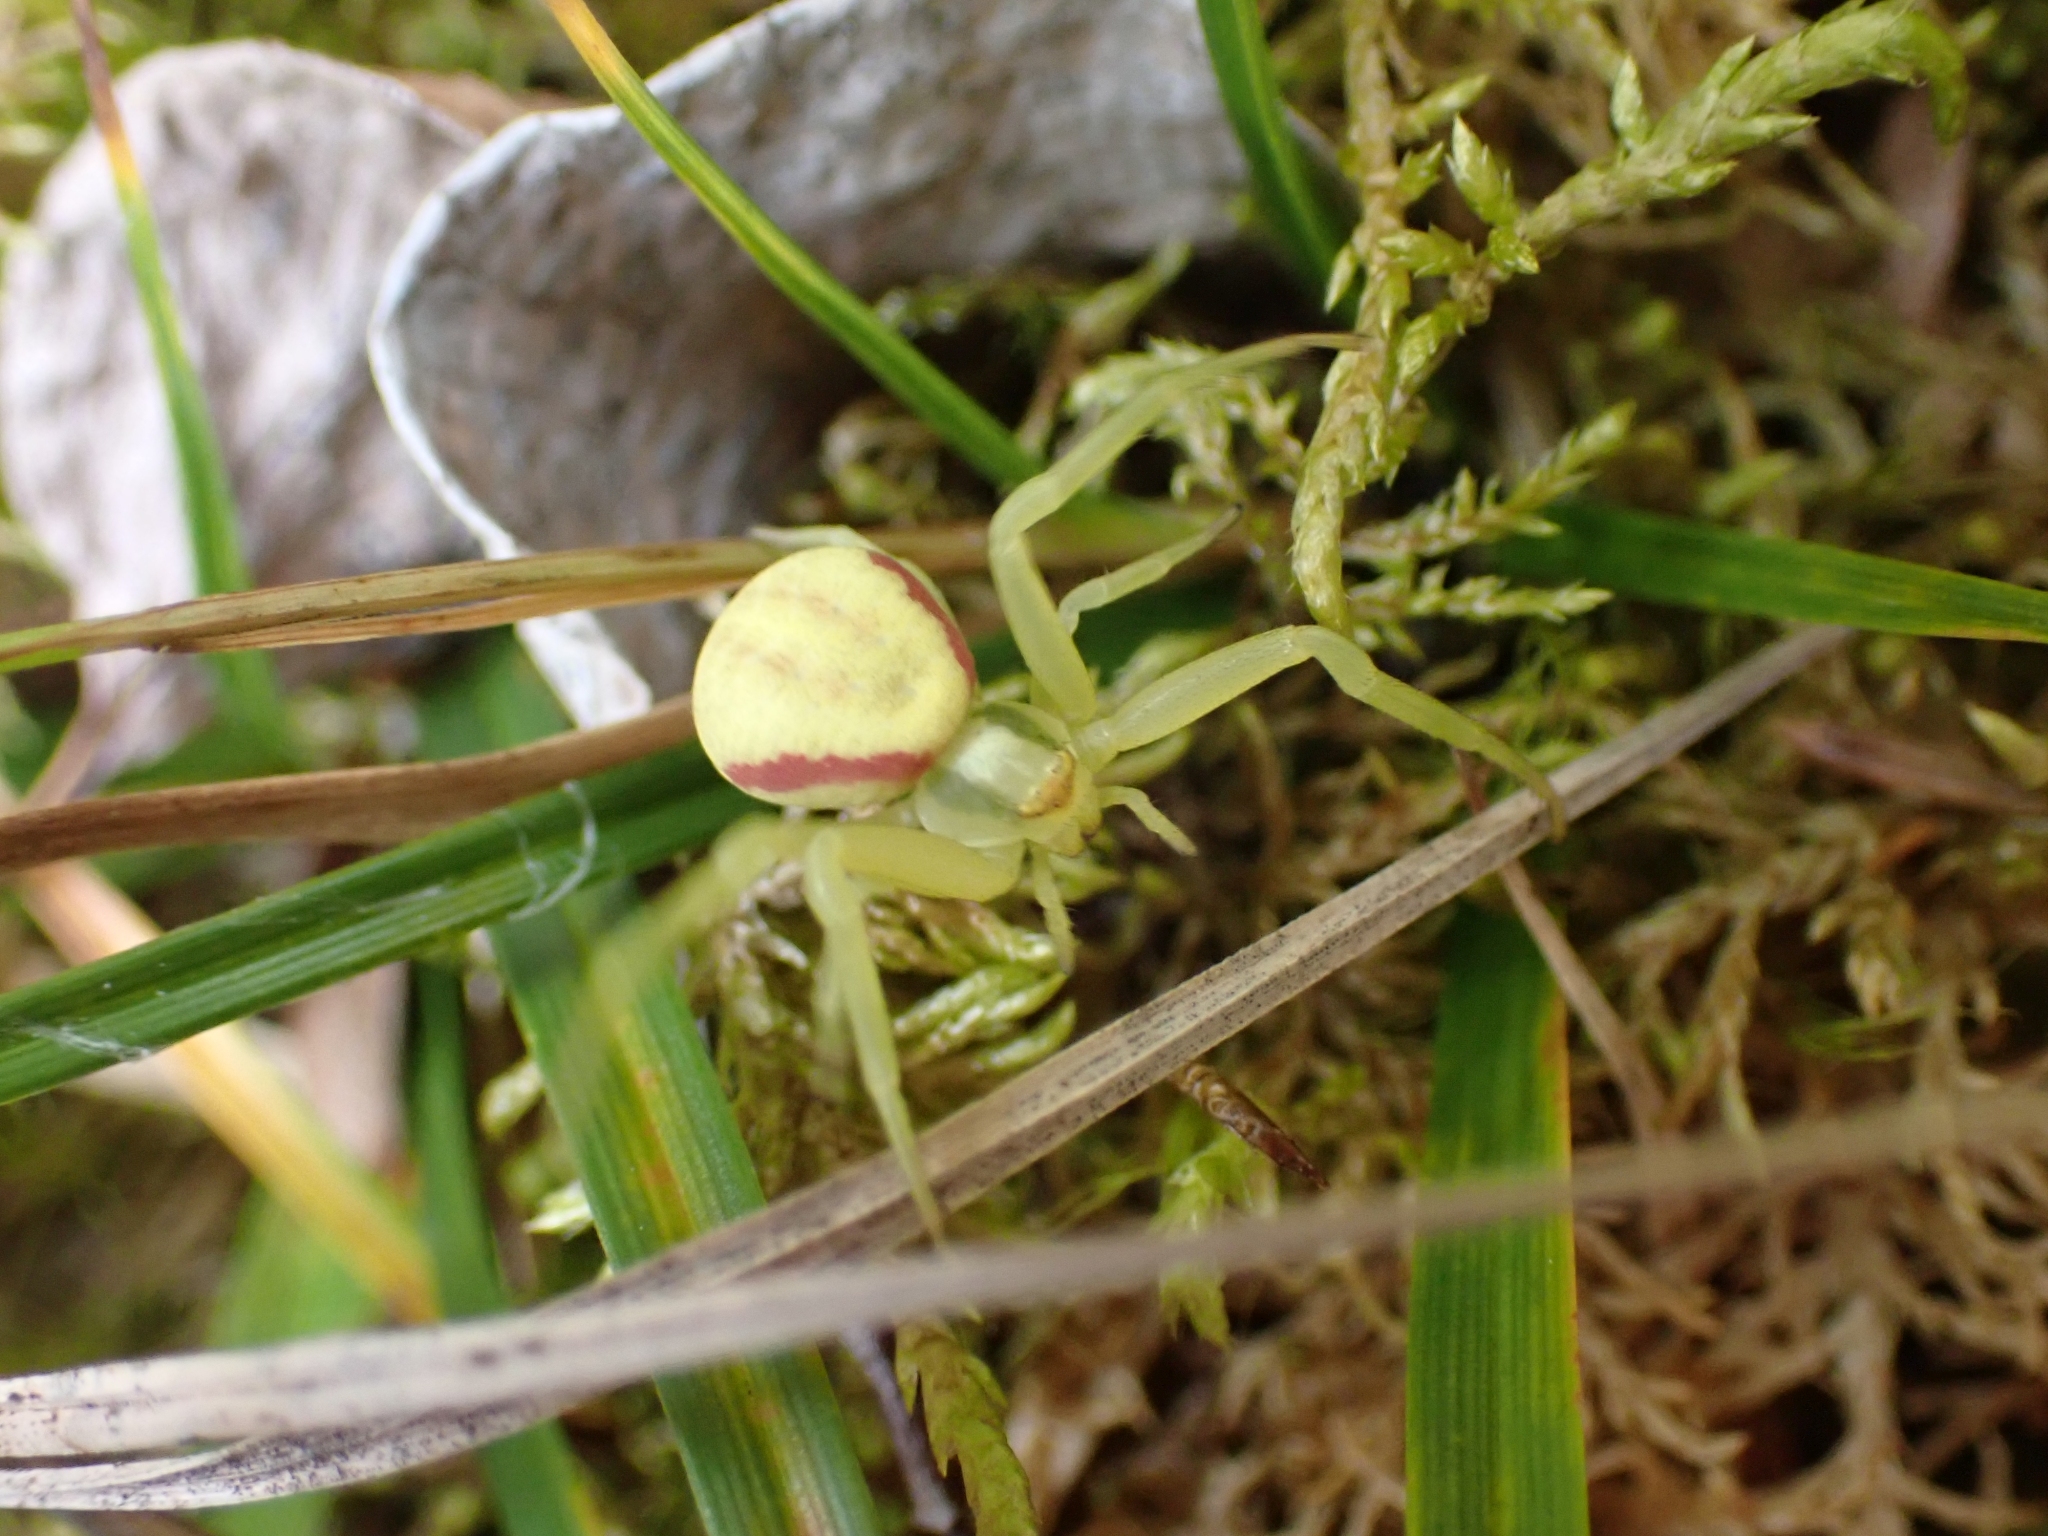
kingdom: Animalia
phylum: Arthropoda
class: Arachnida
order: Araneae
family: Thomisidae
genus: Misumena
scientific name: Misumena vatia
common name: Goldenrod crab spider
